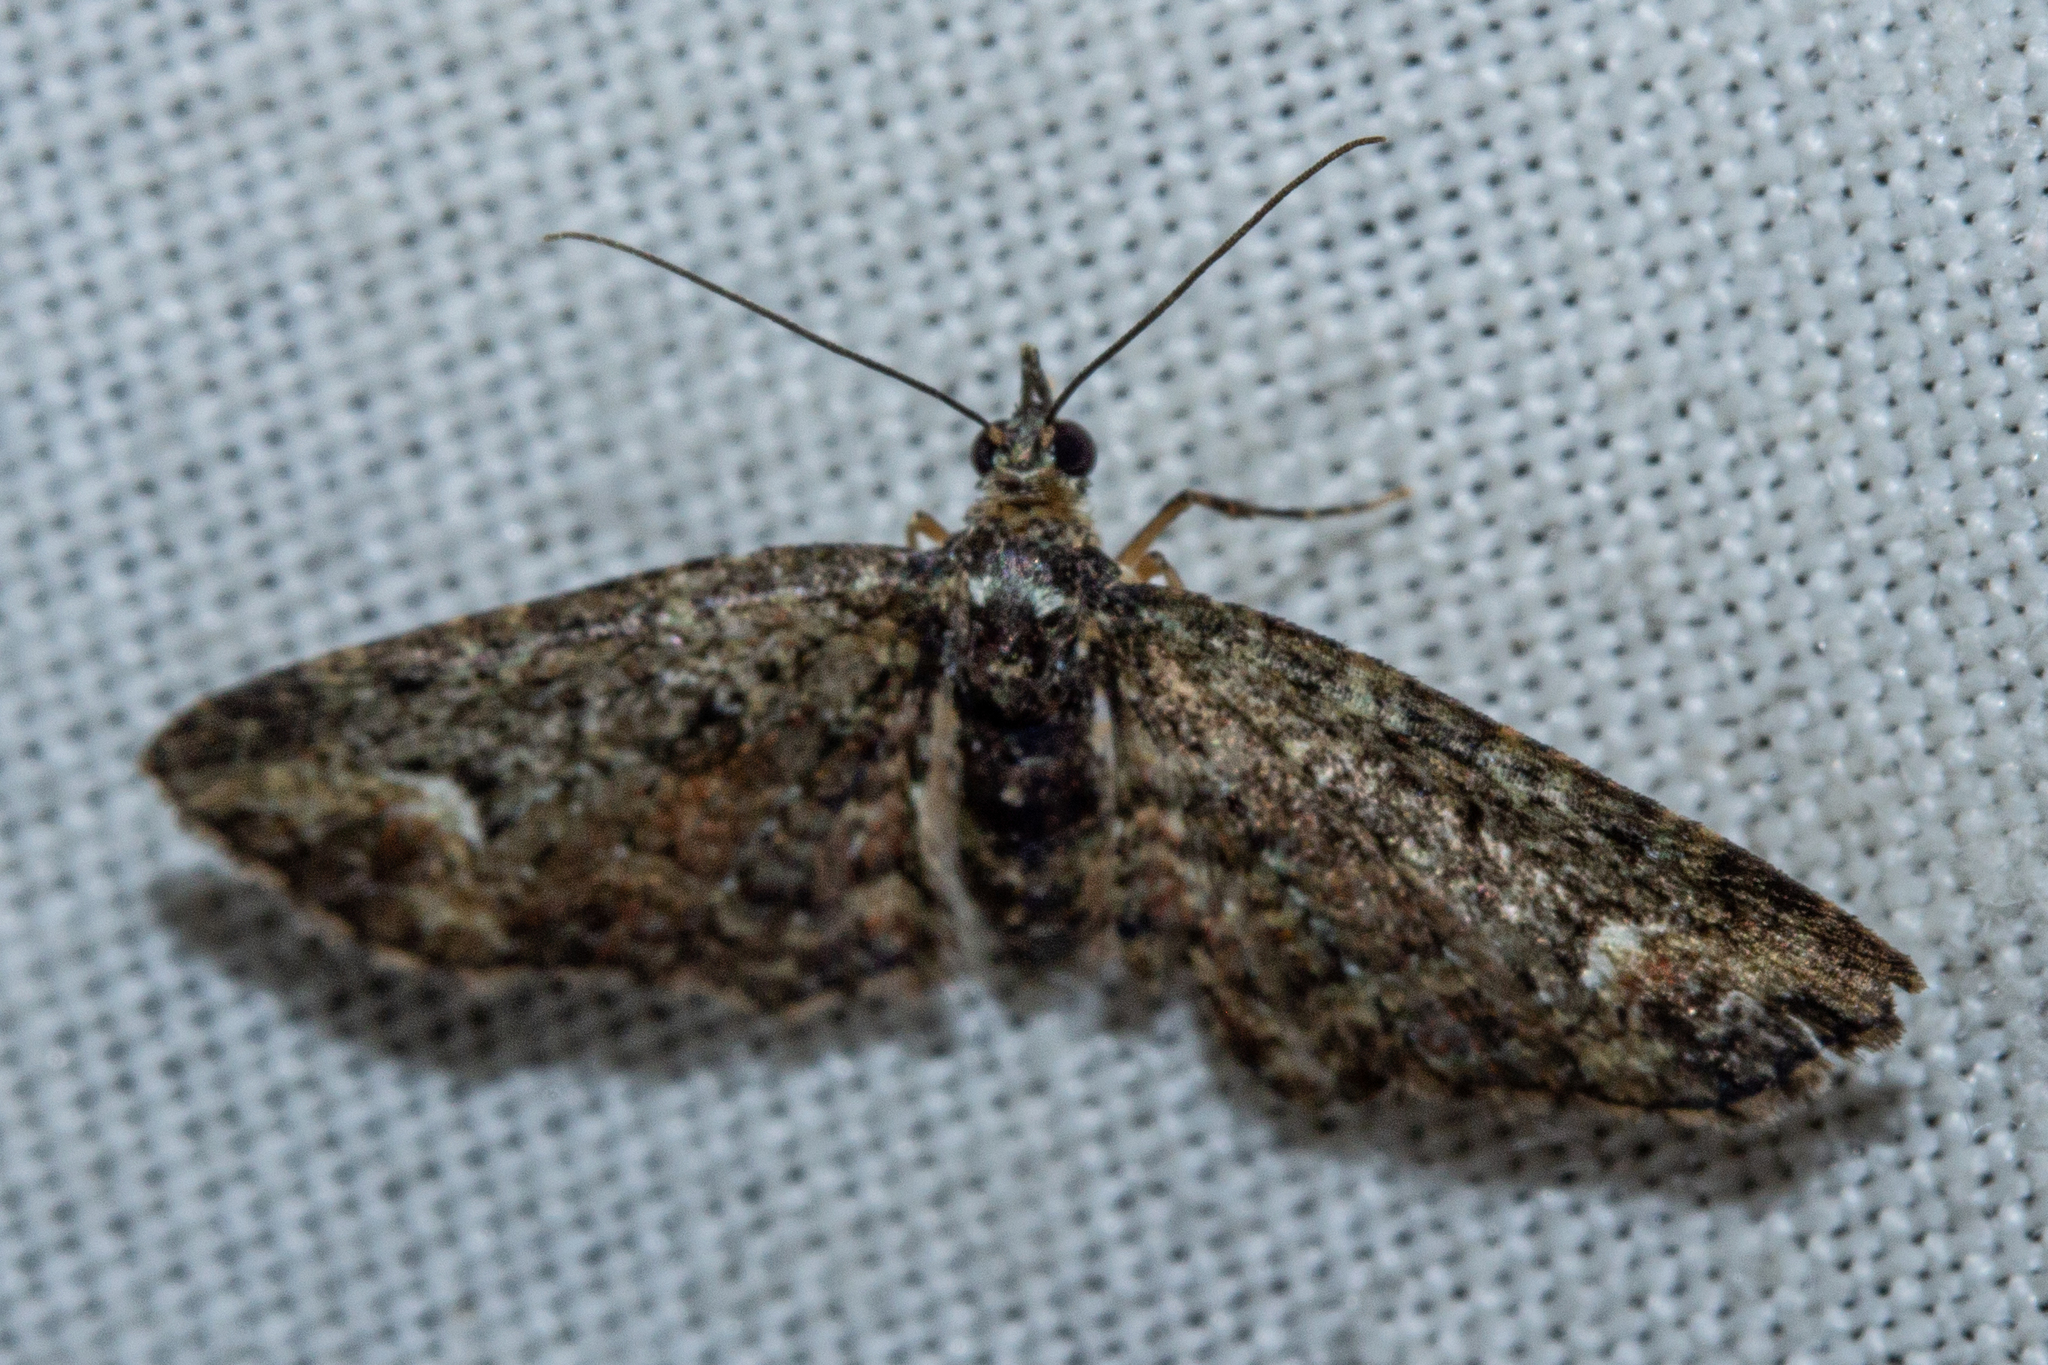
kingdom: Animalia
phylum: Arthropoda
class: Insecta
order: Lepidoptera
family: Geometridae
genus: Pasiphilodes
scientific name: Pasiphilodes testulata
